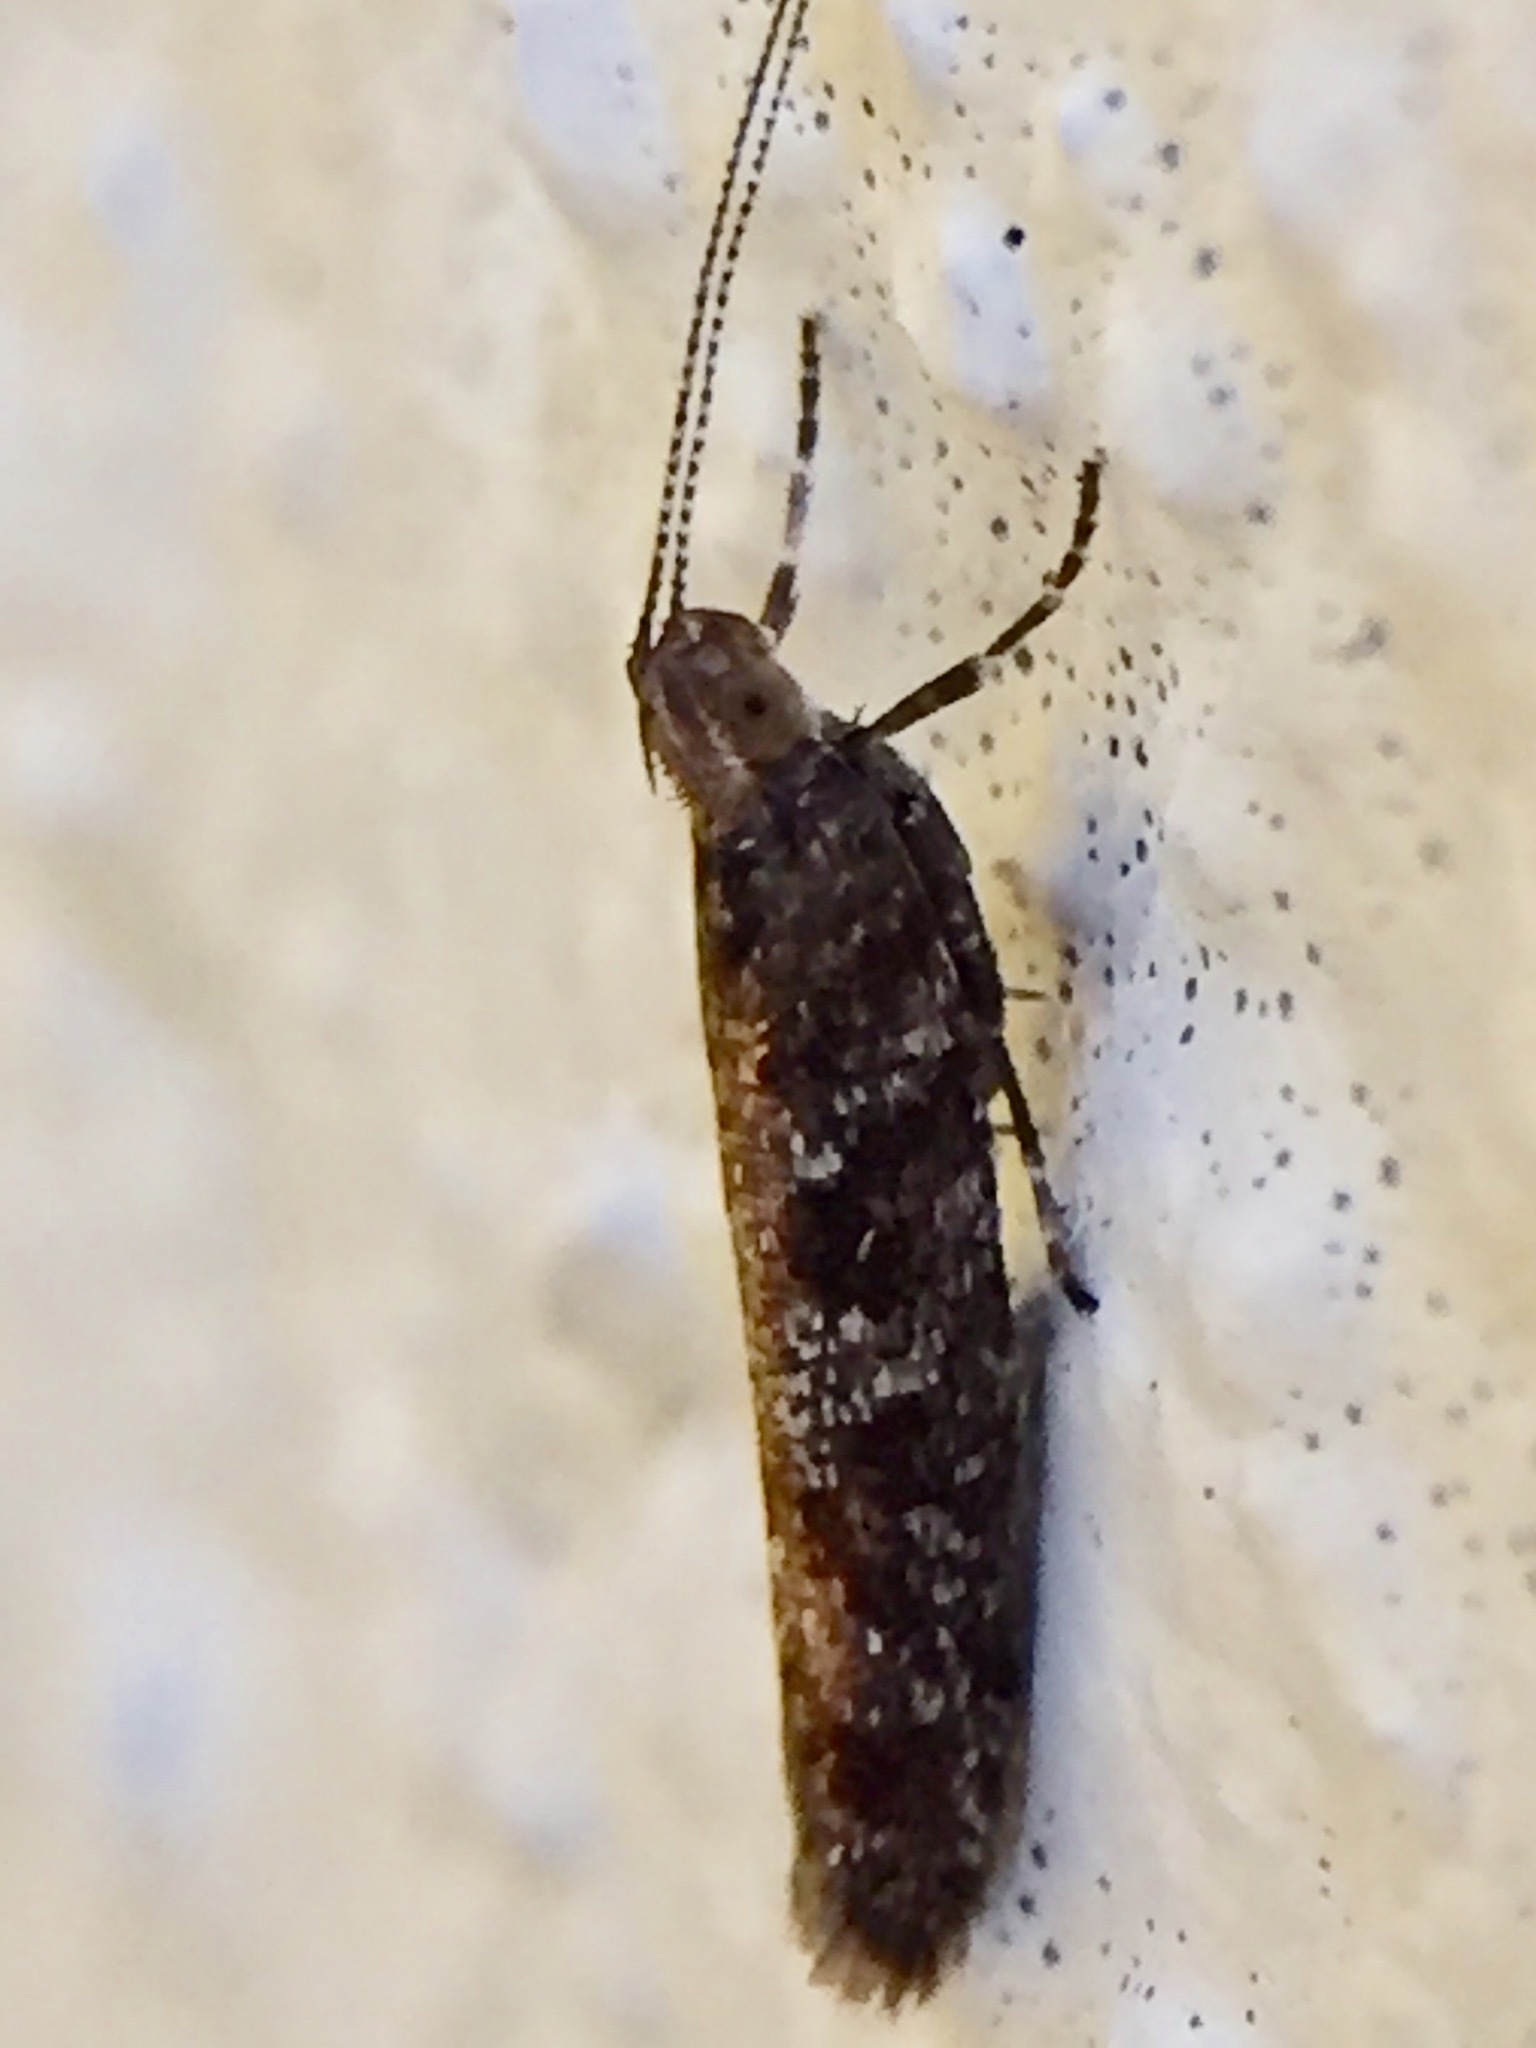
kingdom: Animalia
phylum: Arthropoda
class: Insecta
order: Lepidoptera
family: Glyphipterigidae
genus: Chrysorthenches
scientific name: Chrysorthenches drosochalca
